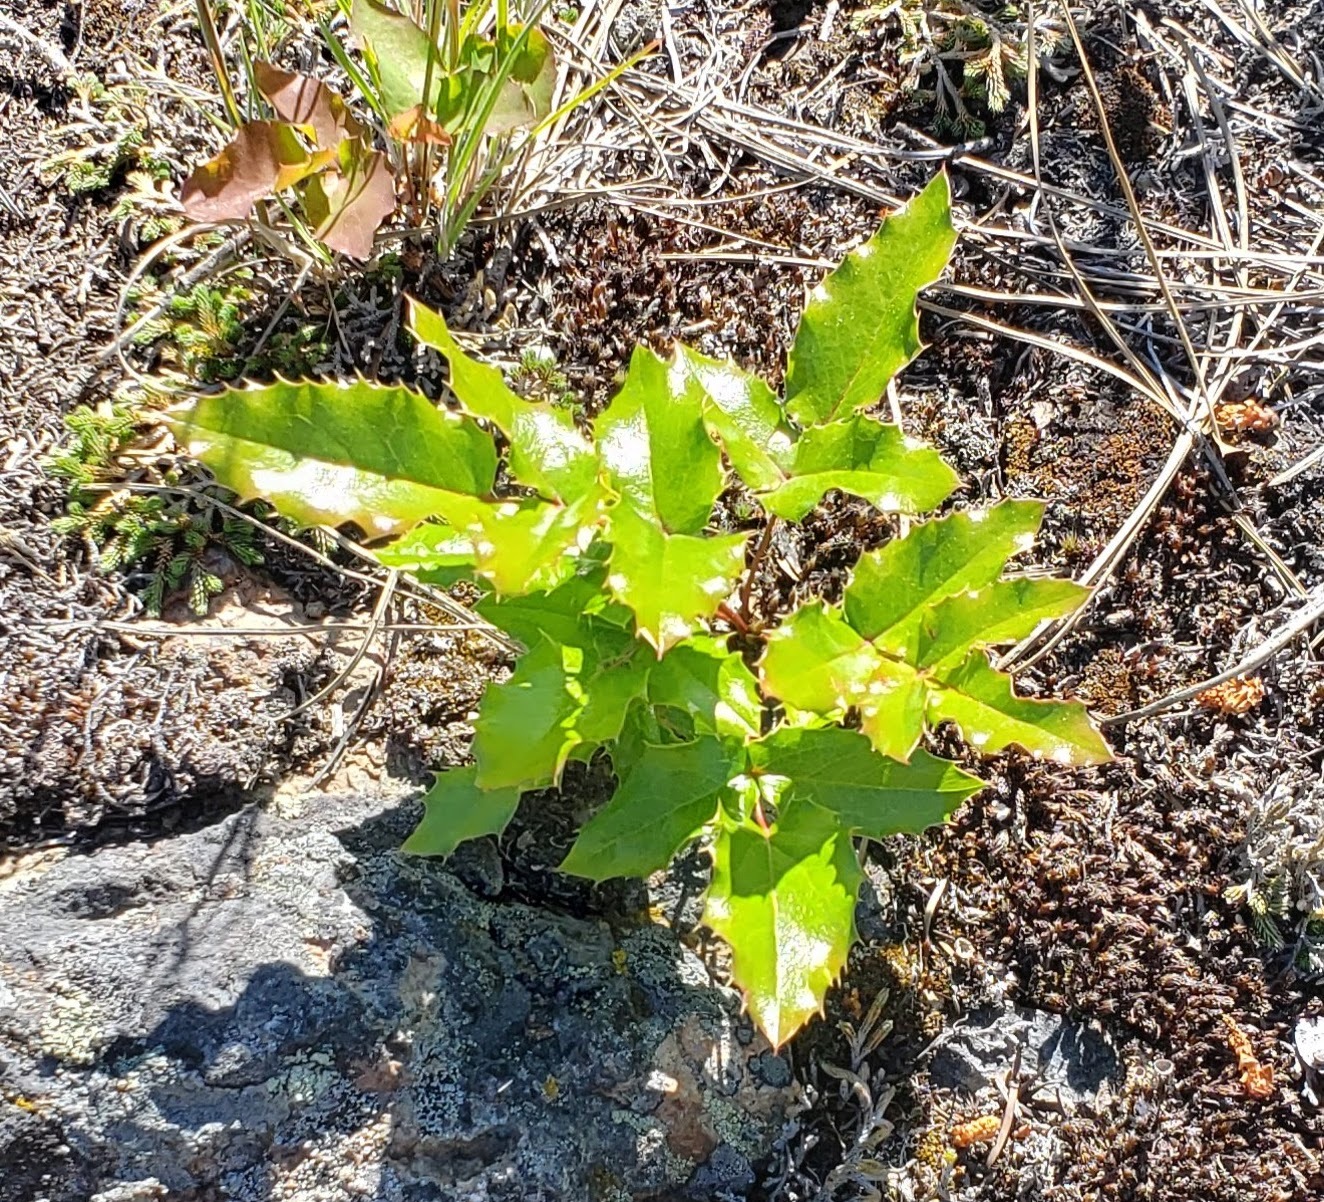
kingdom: Plantae
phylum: Tracheophyta
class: Magnoliopsida
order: Ranunculales
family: Berberidaceae
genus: Mahonia
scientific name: Mahonia aquifolium
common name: Oregon-grape
